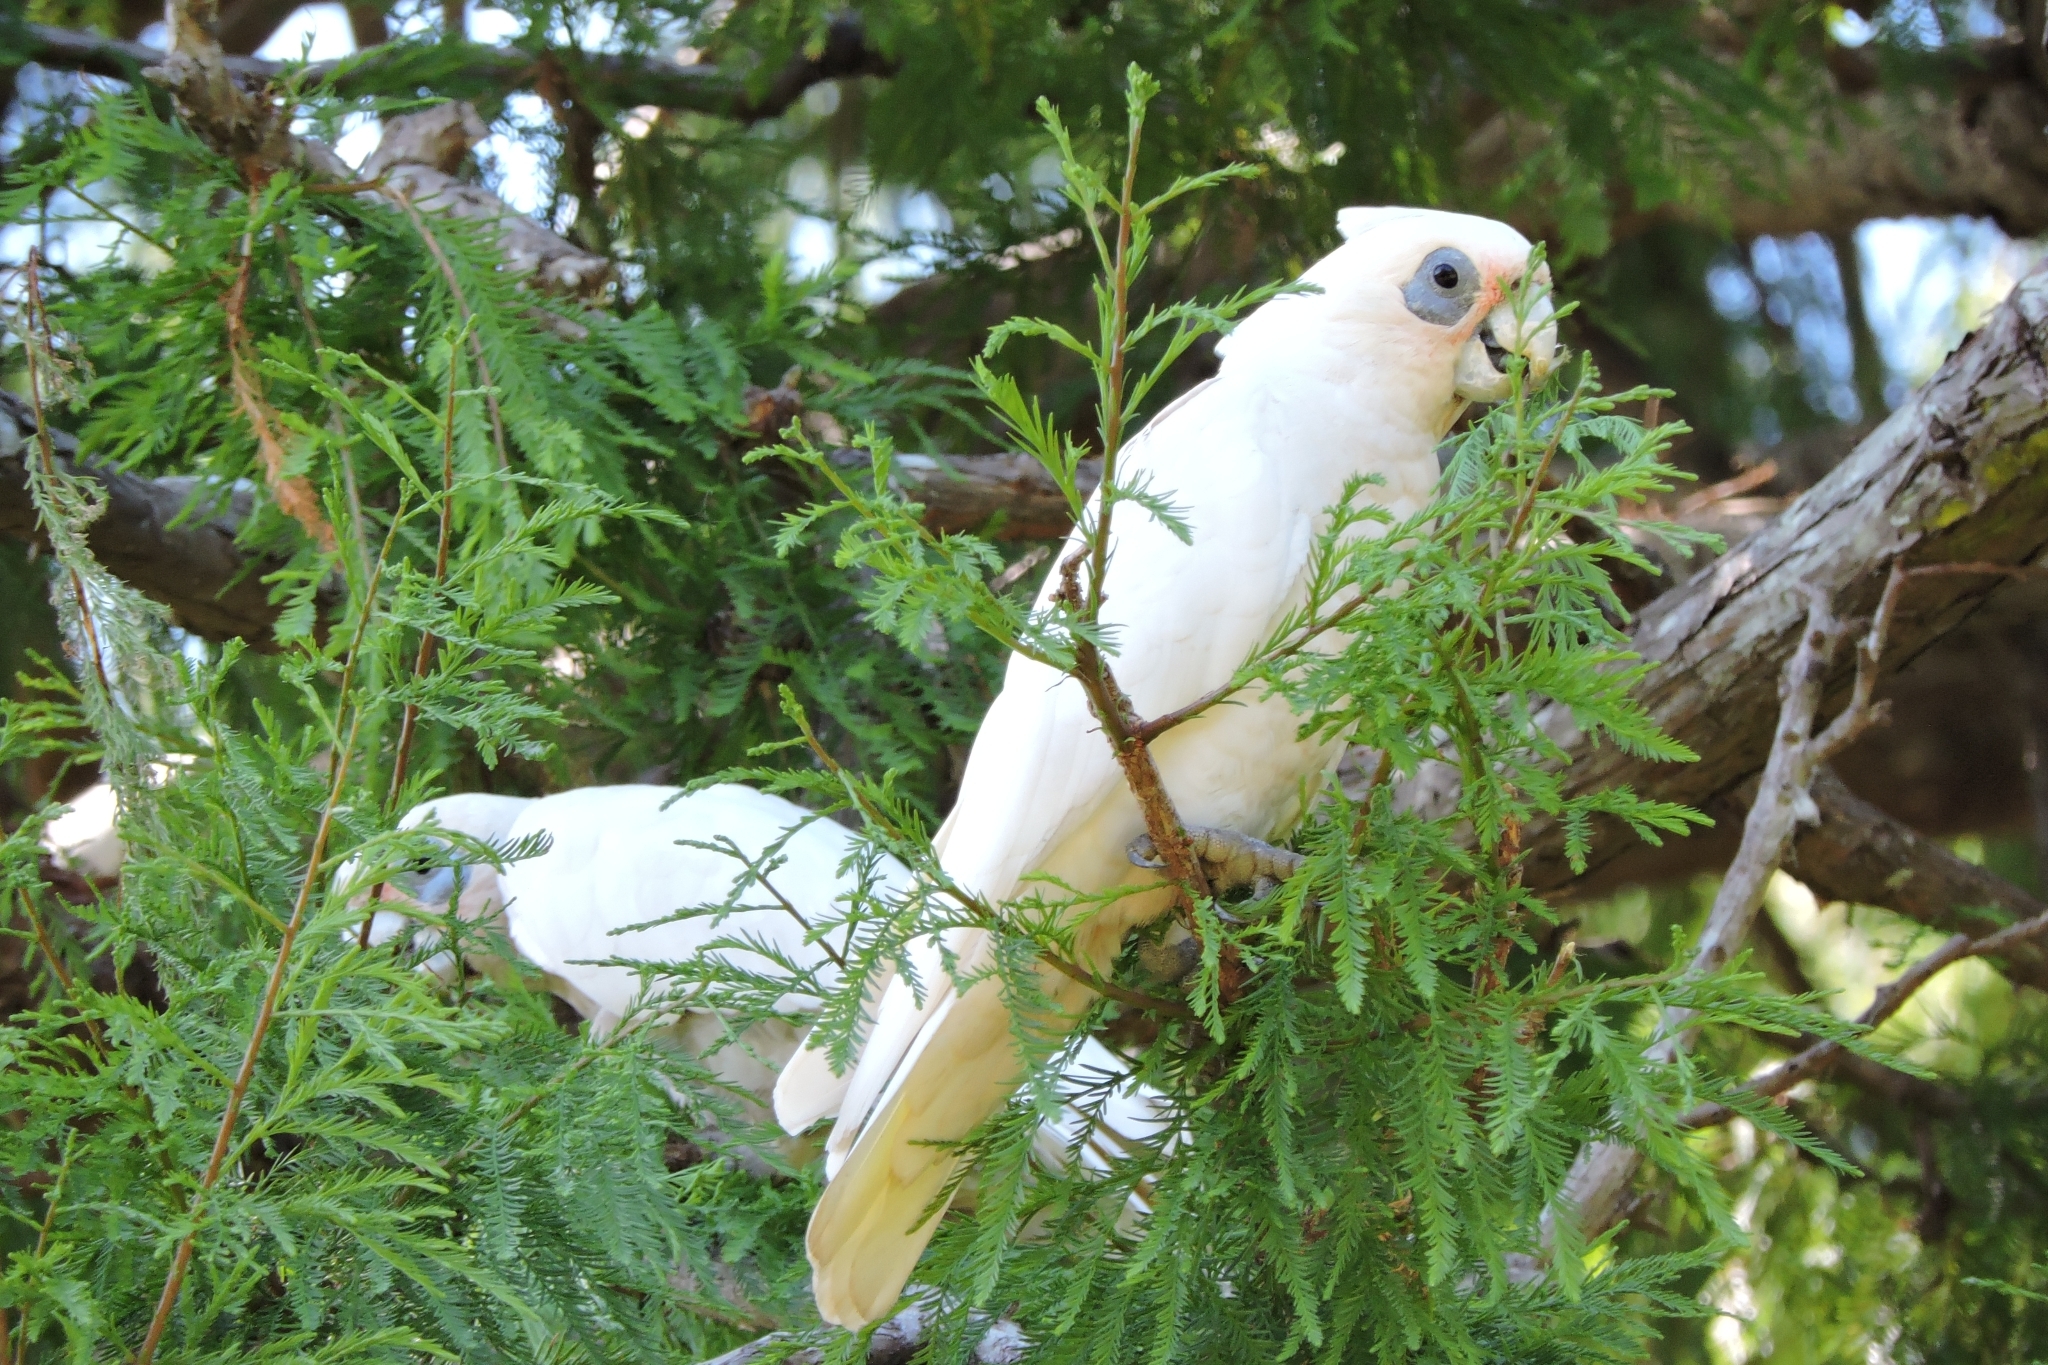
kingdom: Animalia
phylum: Chordata
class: Aves
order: Psittaciformes
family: Psittacidae
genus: Cacatua
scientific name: Cacatua sanguinea
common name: Little corella
